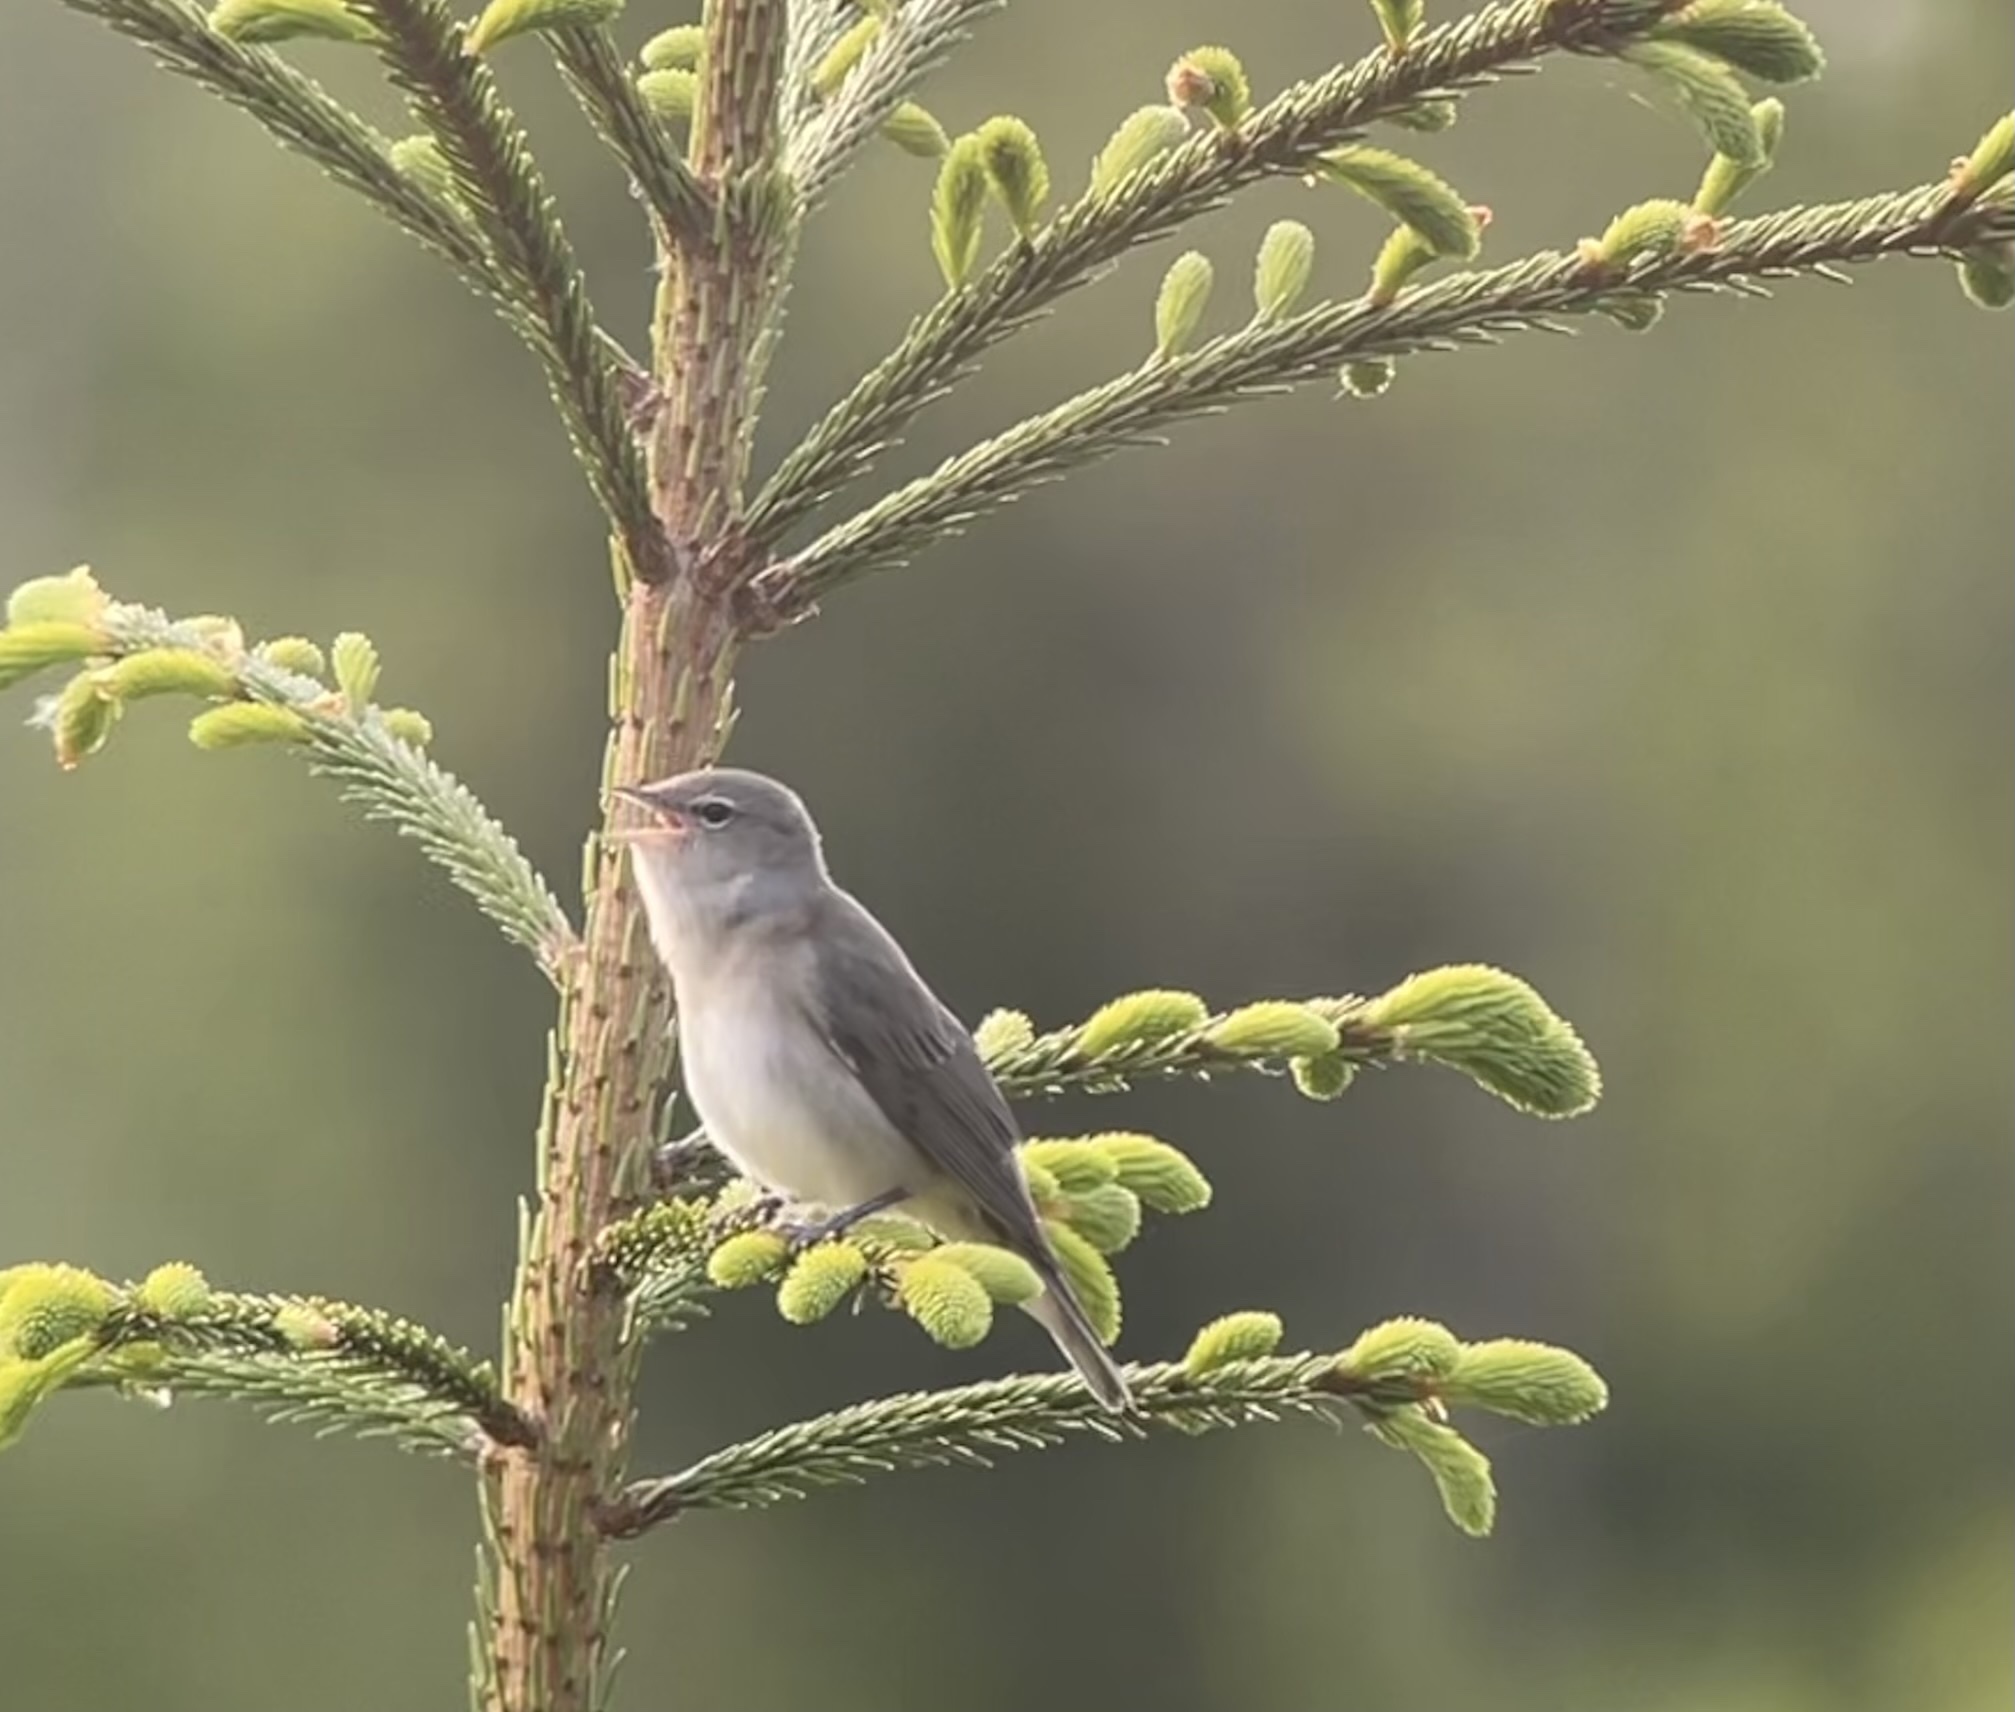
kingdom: Animalia
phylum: Chordata
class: Aves
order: Passeriformes
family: Sylviidae
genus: Sylvia
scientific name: Sylvia borin
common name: Garden warbler
